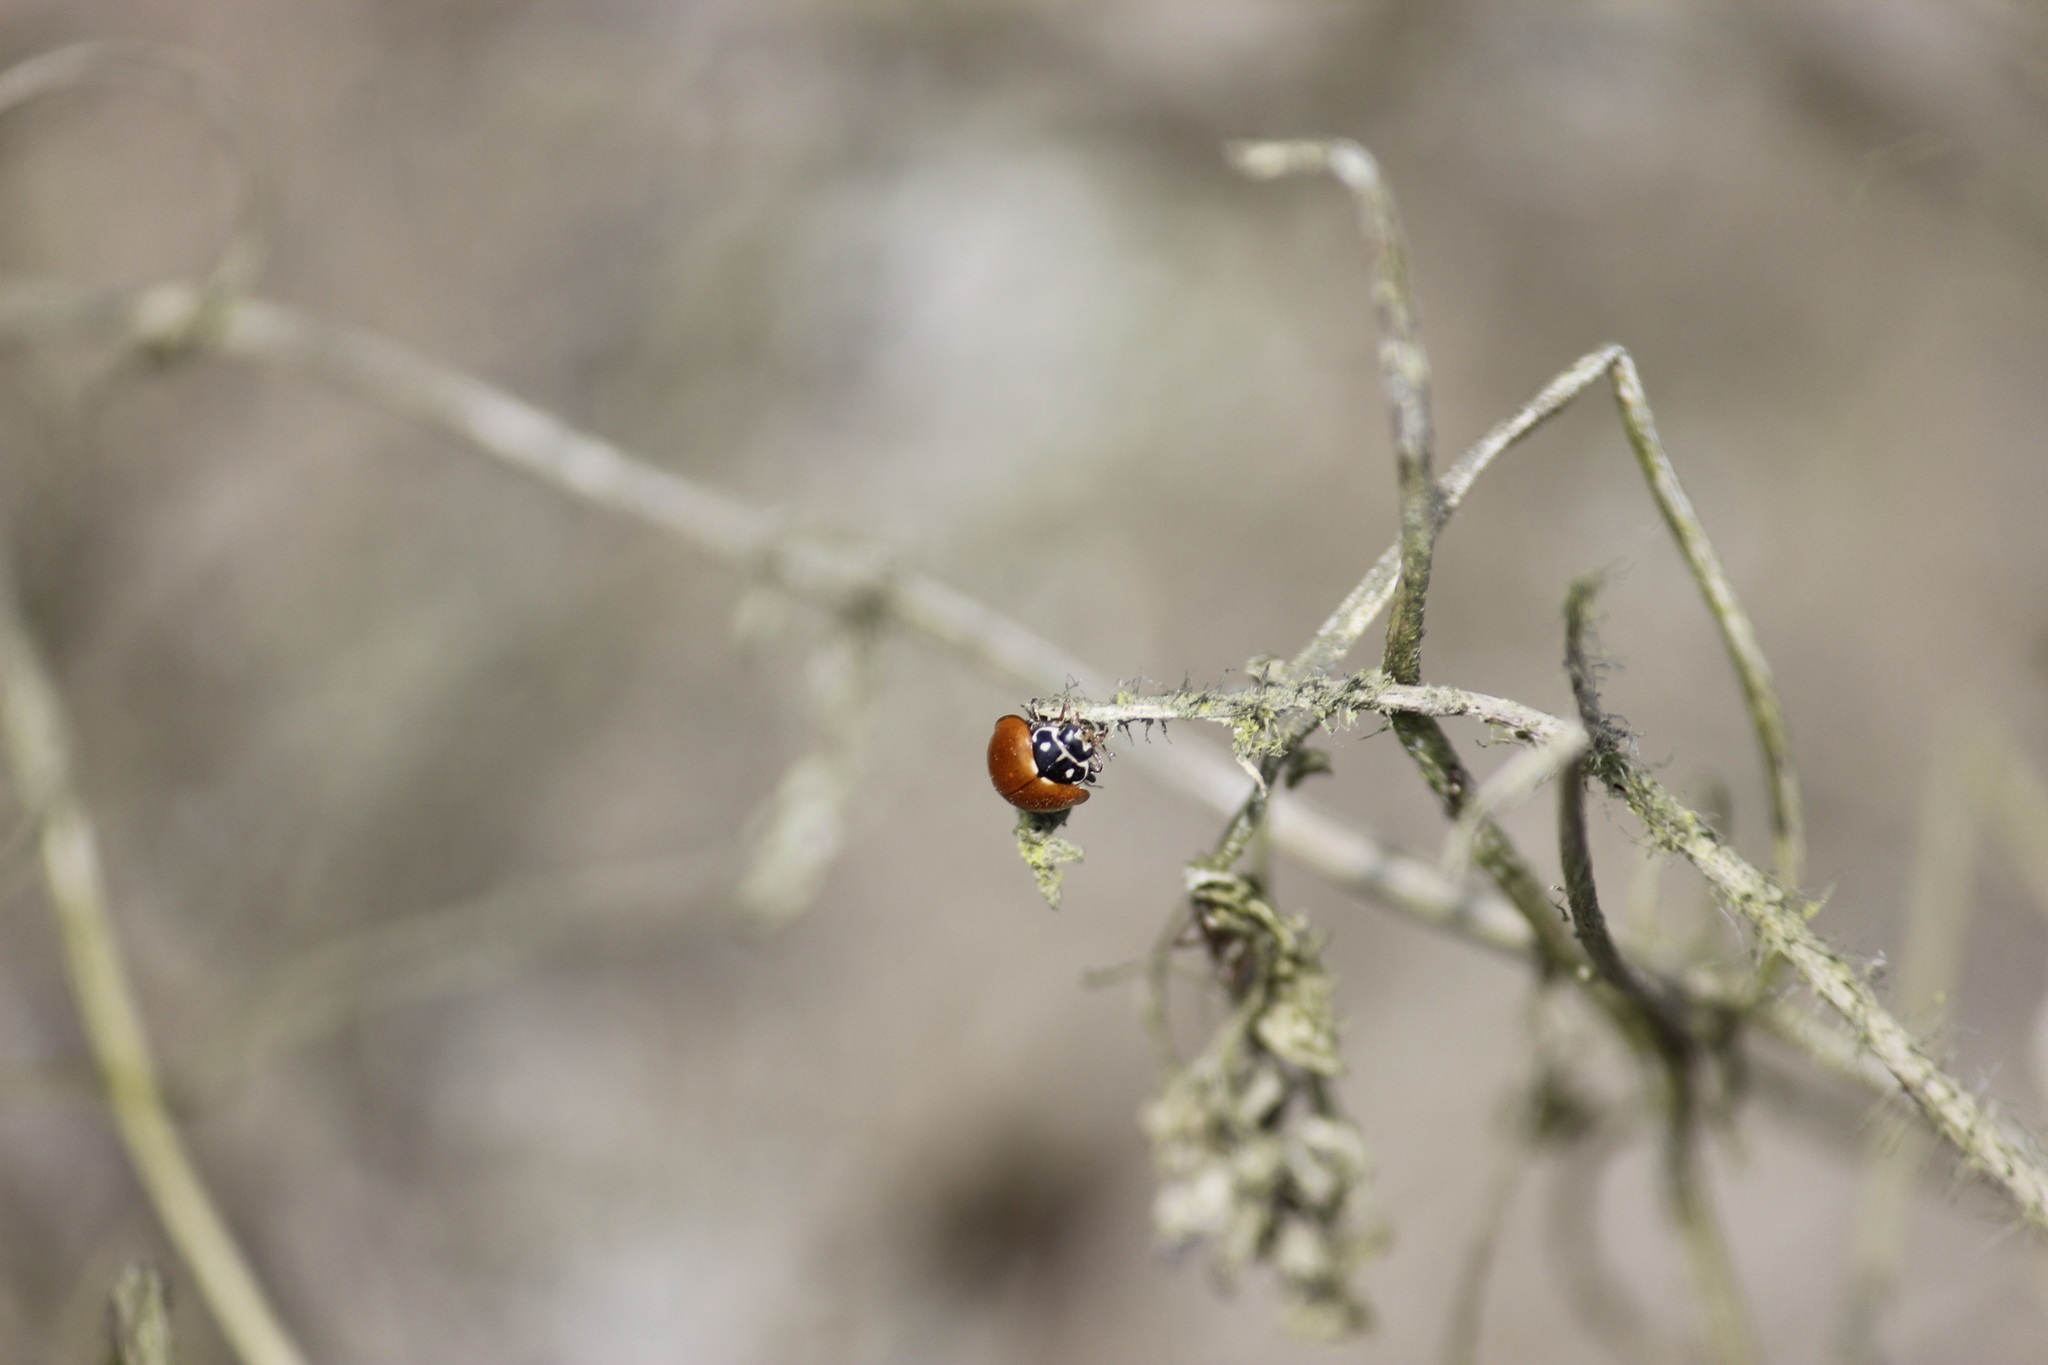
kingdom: Animalia
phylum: Arthropoda
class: Insecta
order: Coleoptera
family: Coccinellidae
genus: Cycloneda
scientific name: Cycloneda sanguinea
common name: Ladybird beetle
